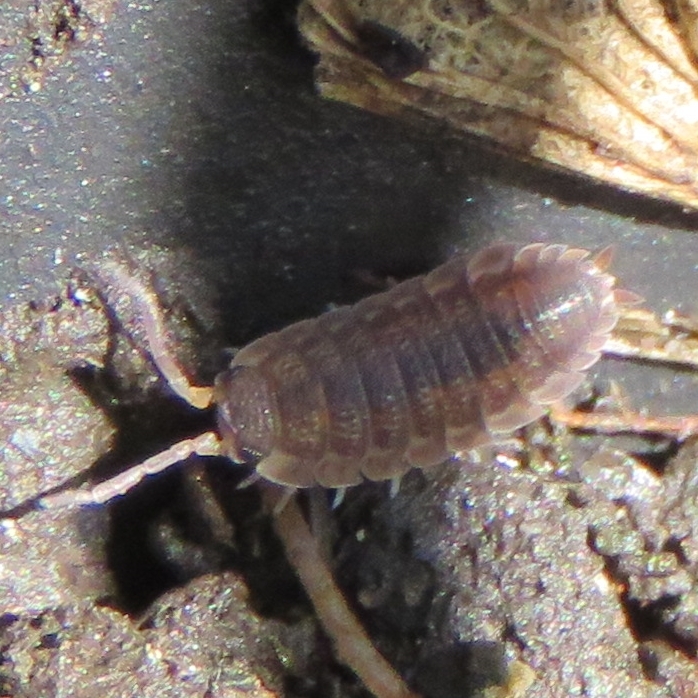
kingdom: Animalia
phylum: Arthropoda
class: Malacostraca
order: Isopoda
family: Porcellionidae
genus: Porcellio
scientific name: Porcellio scaber
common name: Common rough woodlouse
